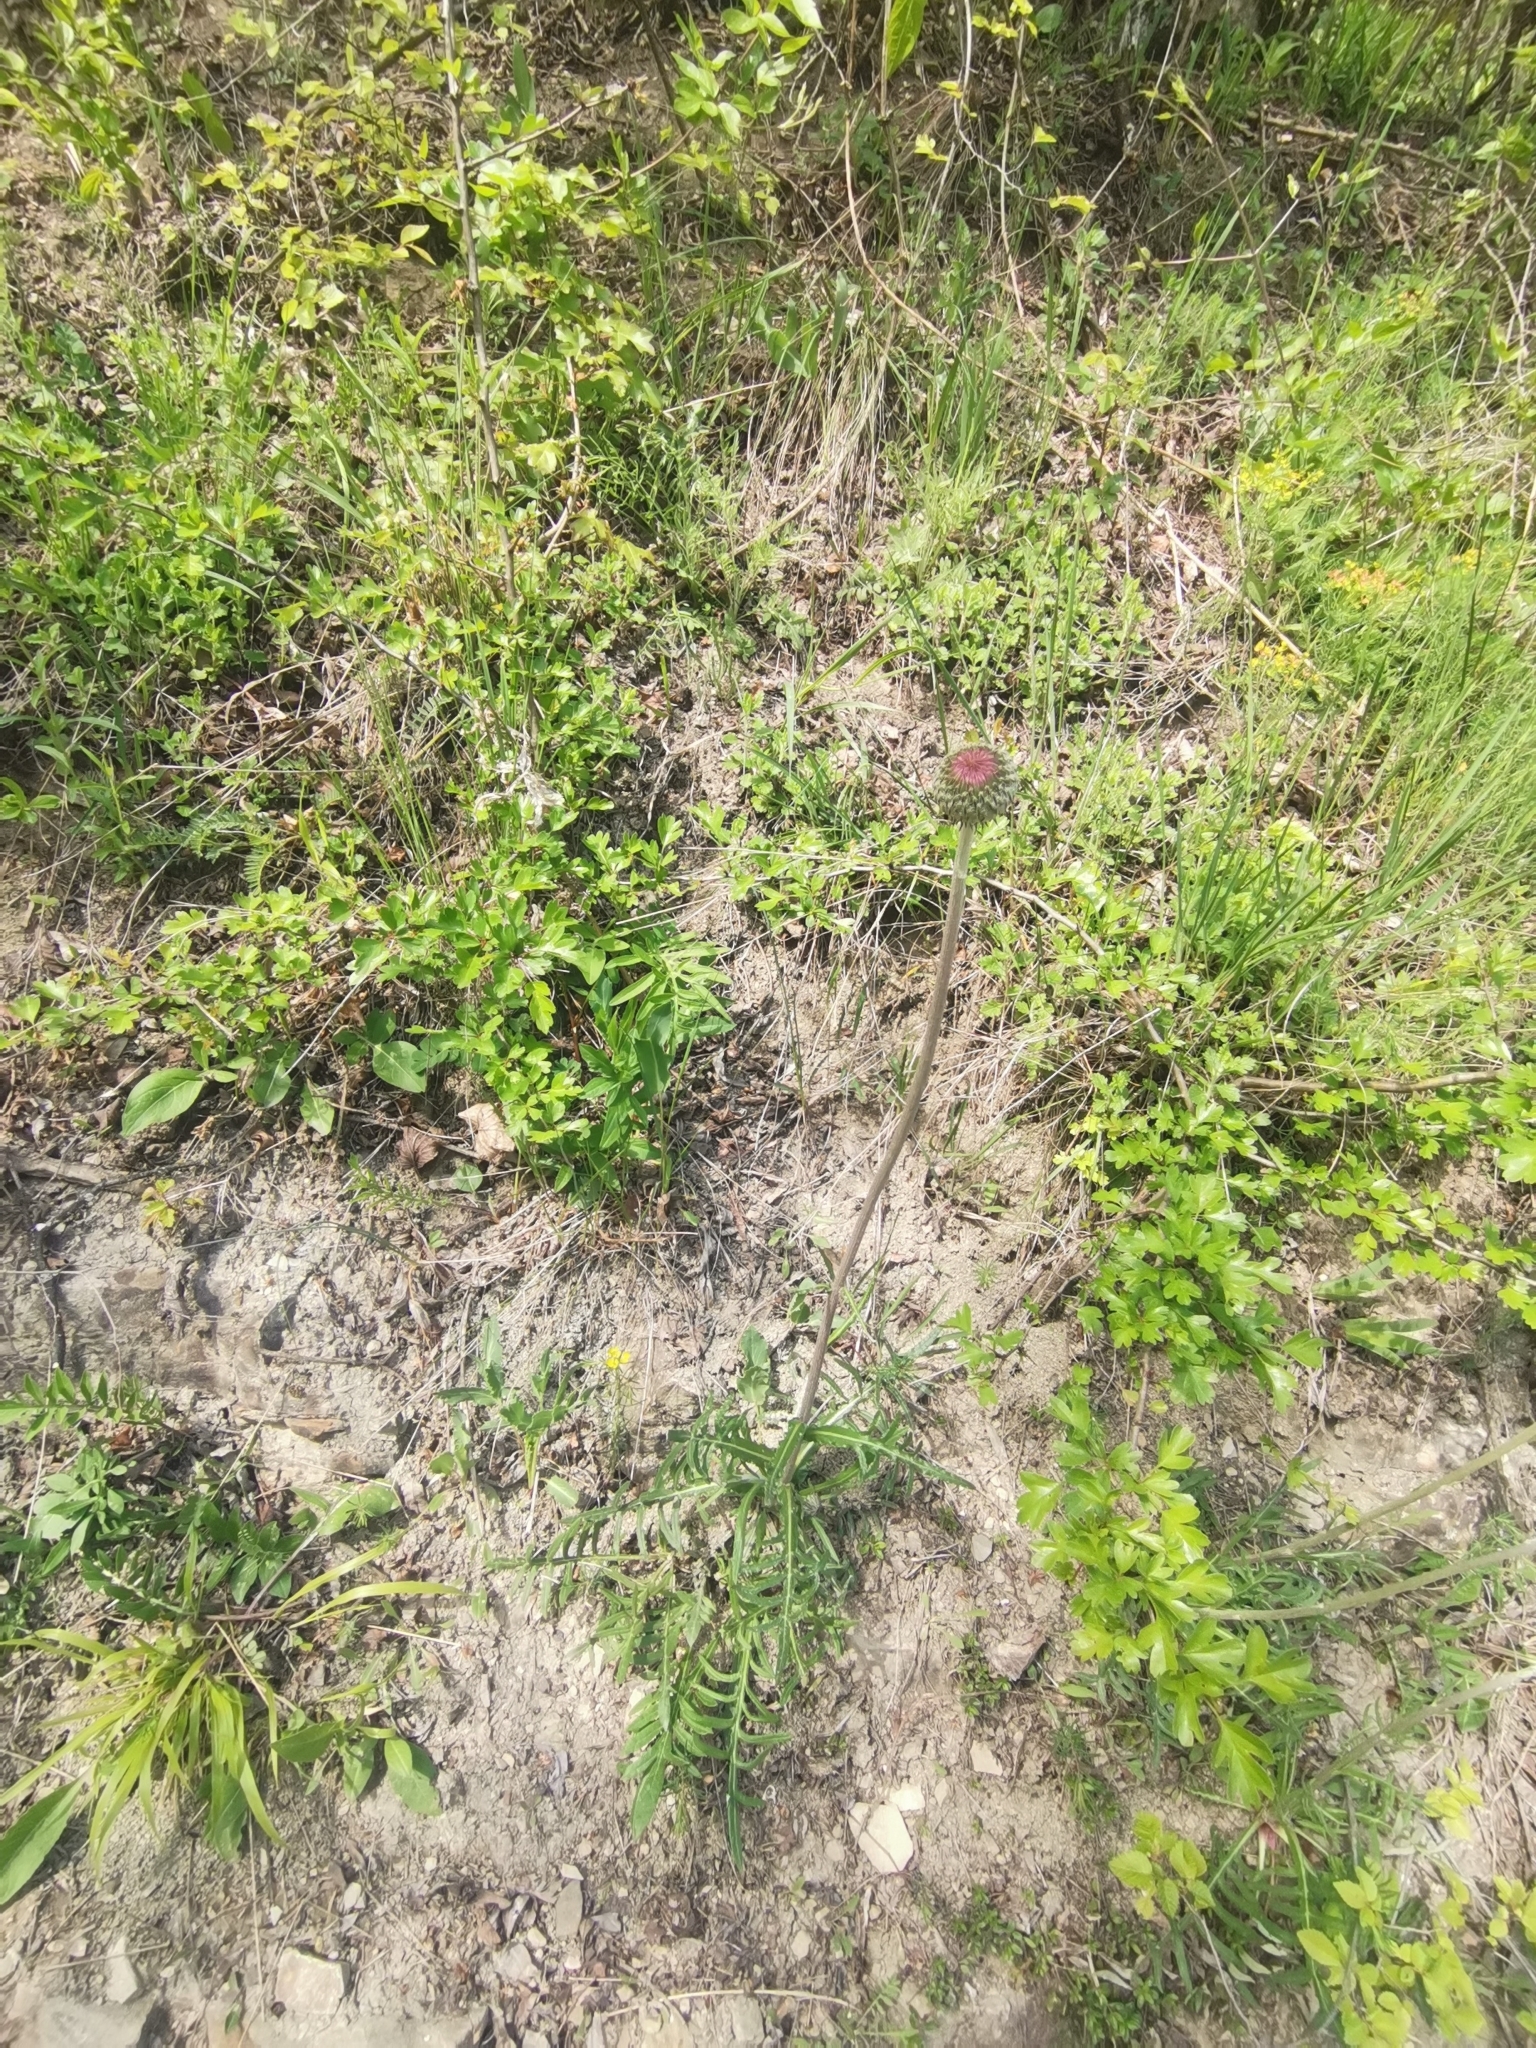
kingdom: Plantae
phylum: Tracheophyta
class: Magnoliopsida
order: Asterales
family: Asteraceae
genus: Jurinea
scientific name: Jurinea mollis
